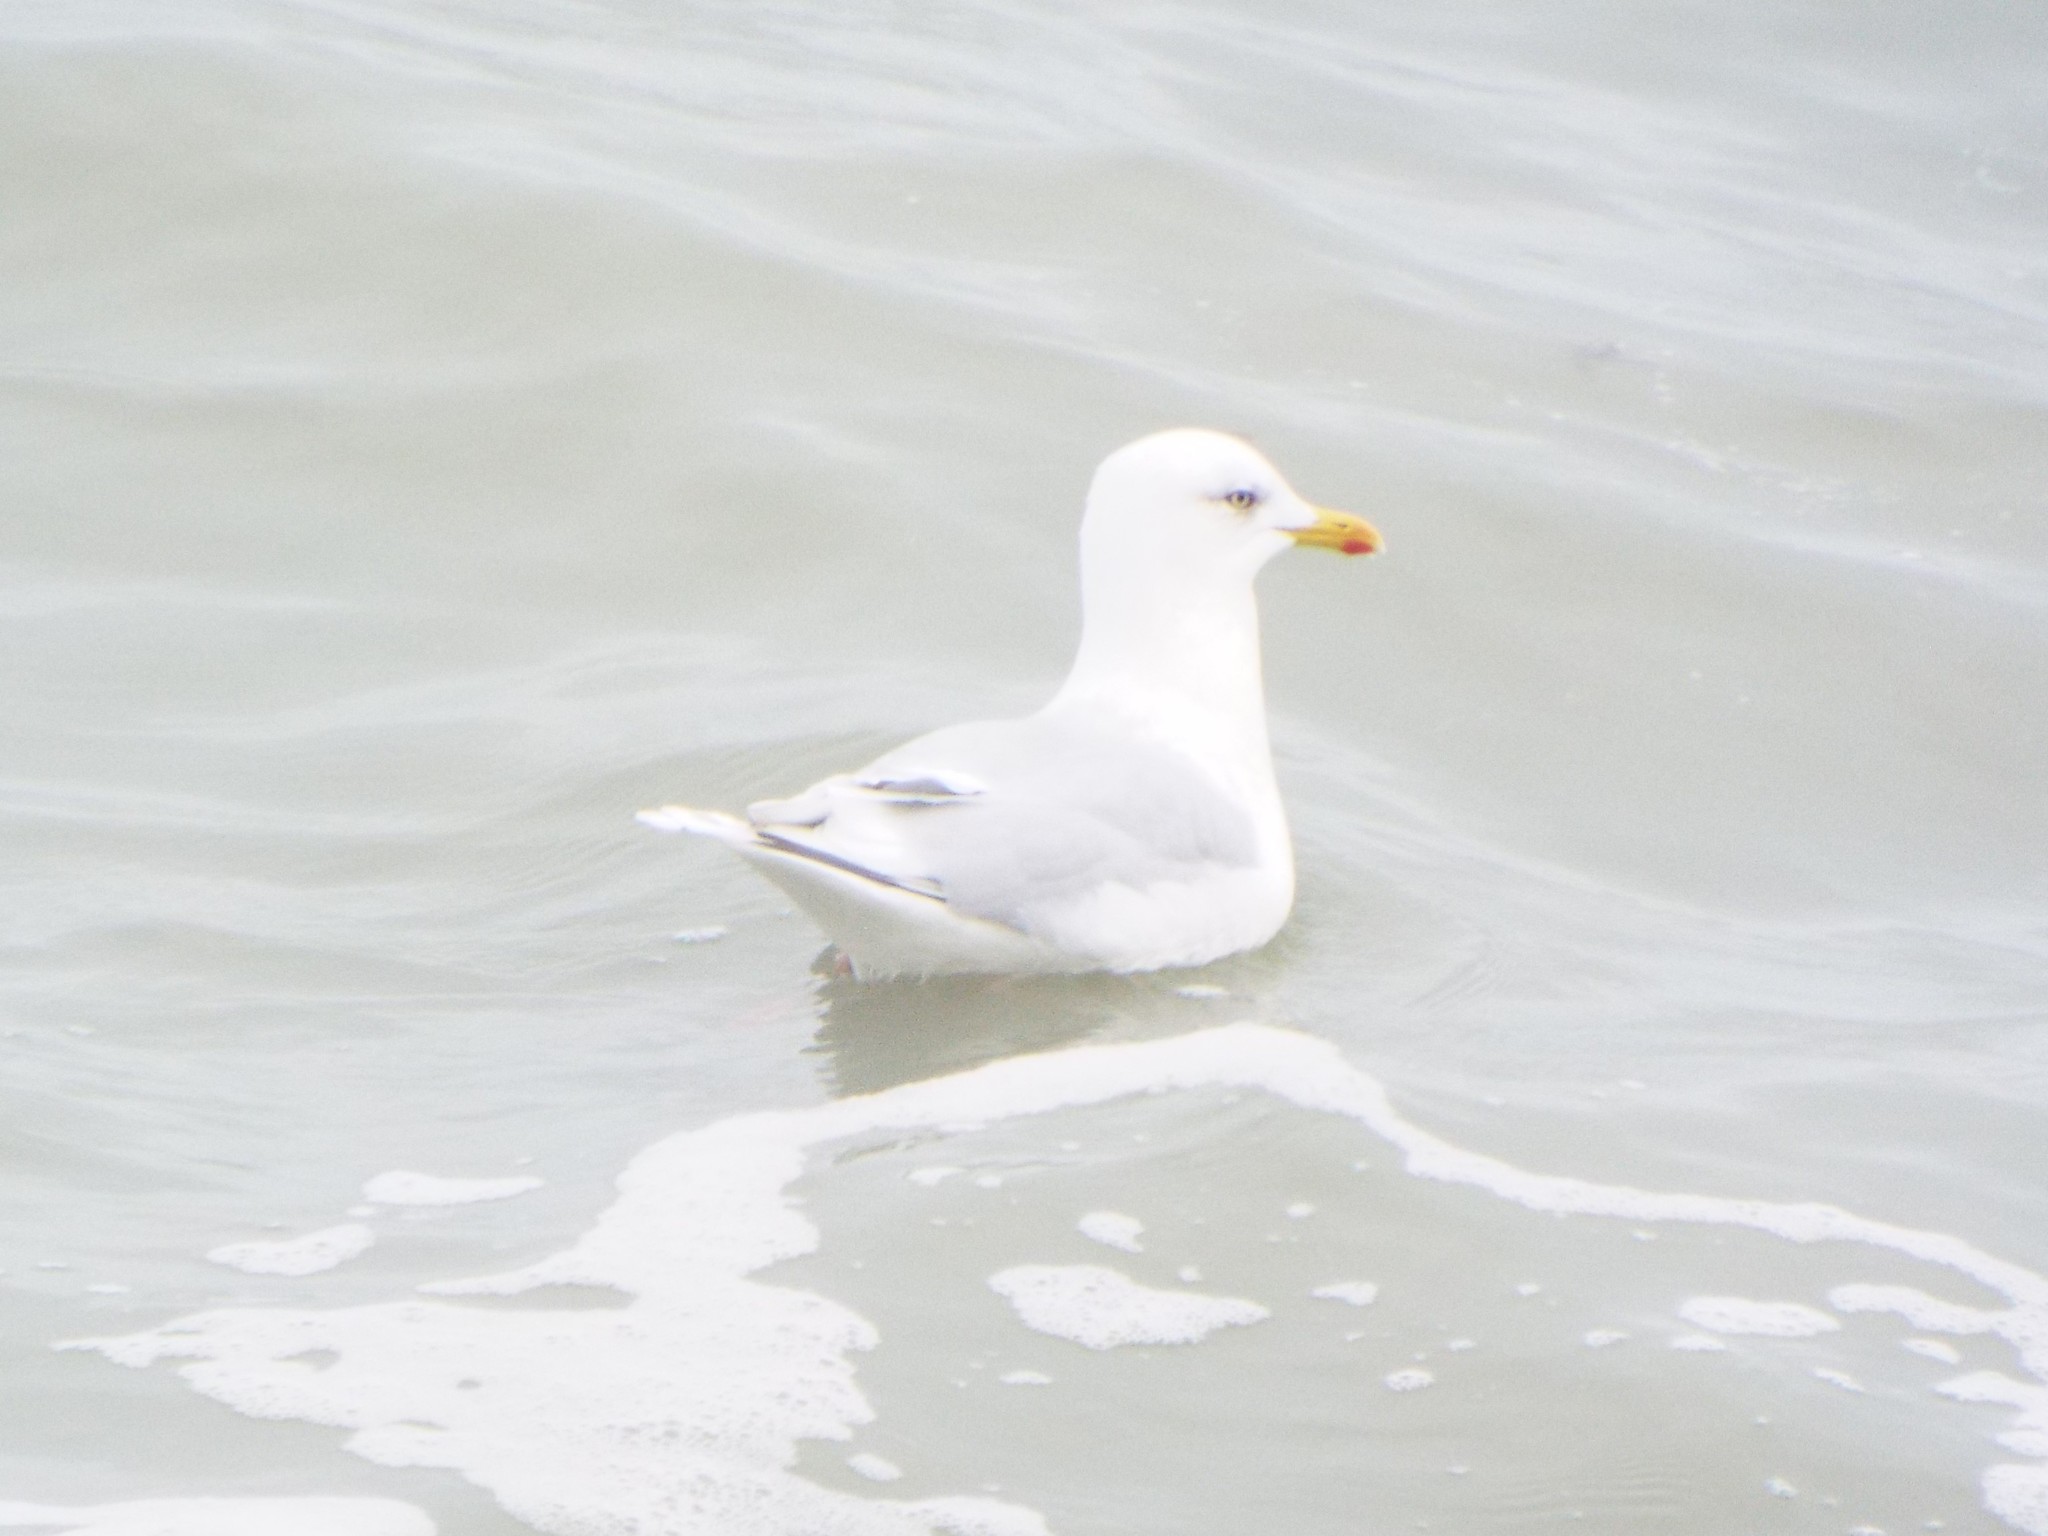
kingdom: Animalia
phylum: Chordata
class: Aves
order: Charadriiformes
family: Laridae
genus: Larus
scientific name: Larus glaucoides
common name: Iceland gull
